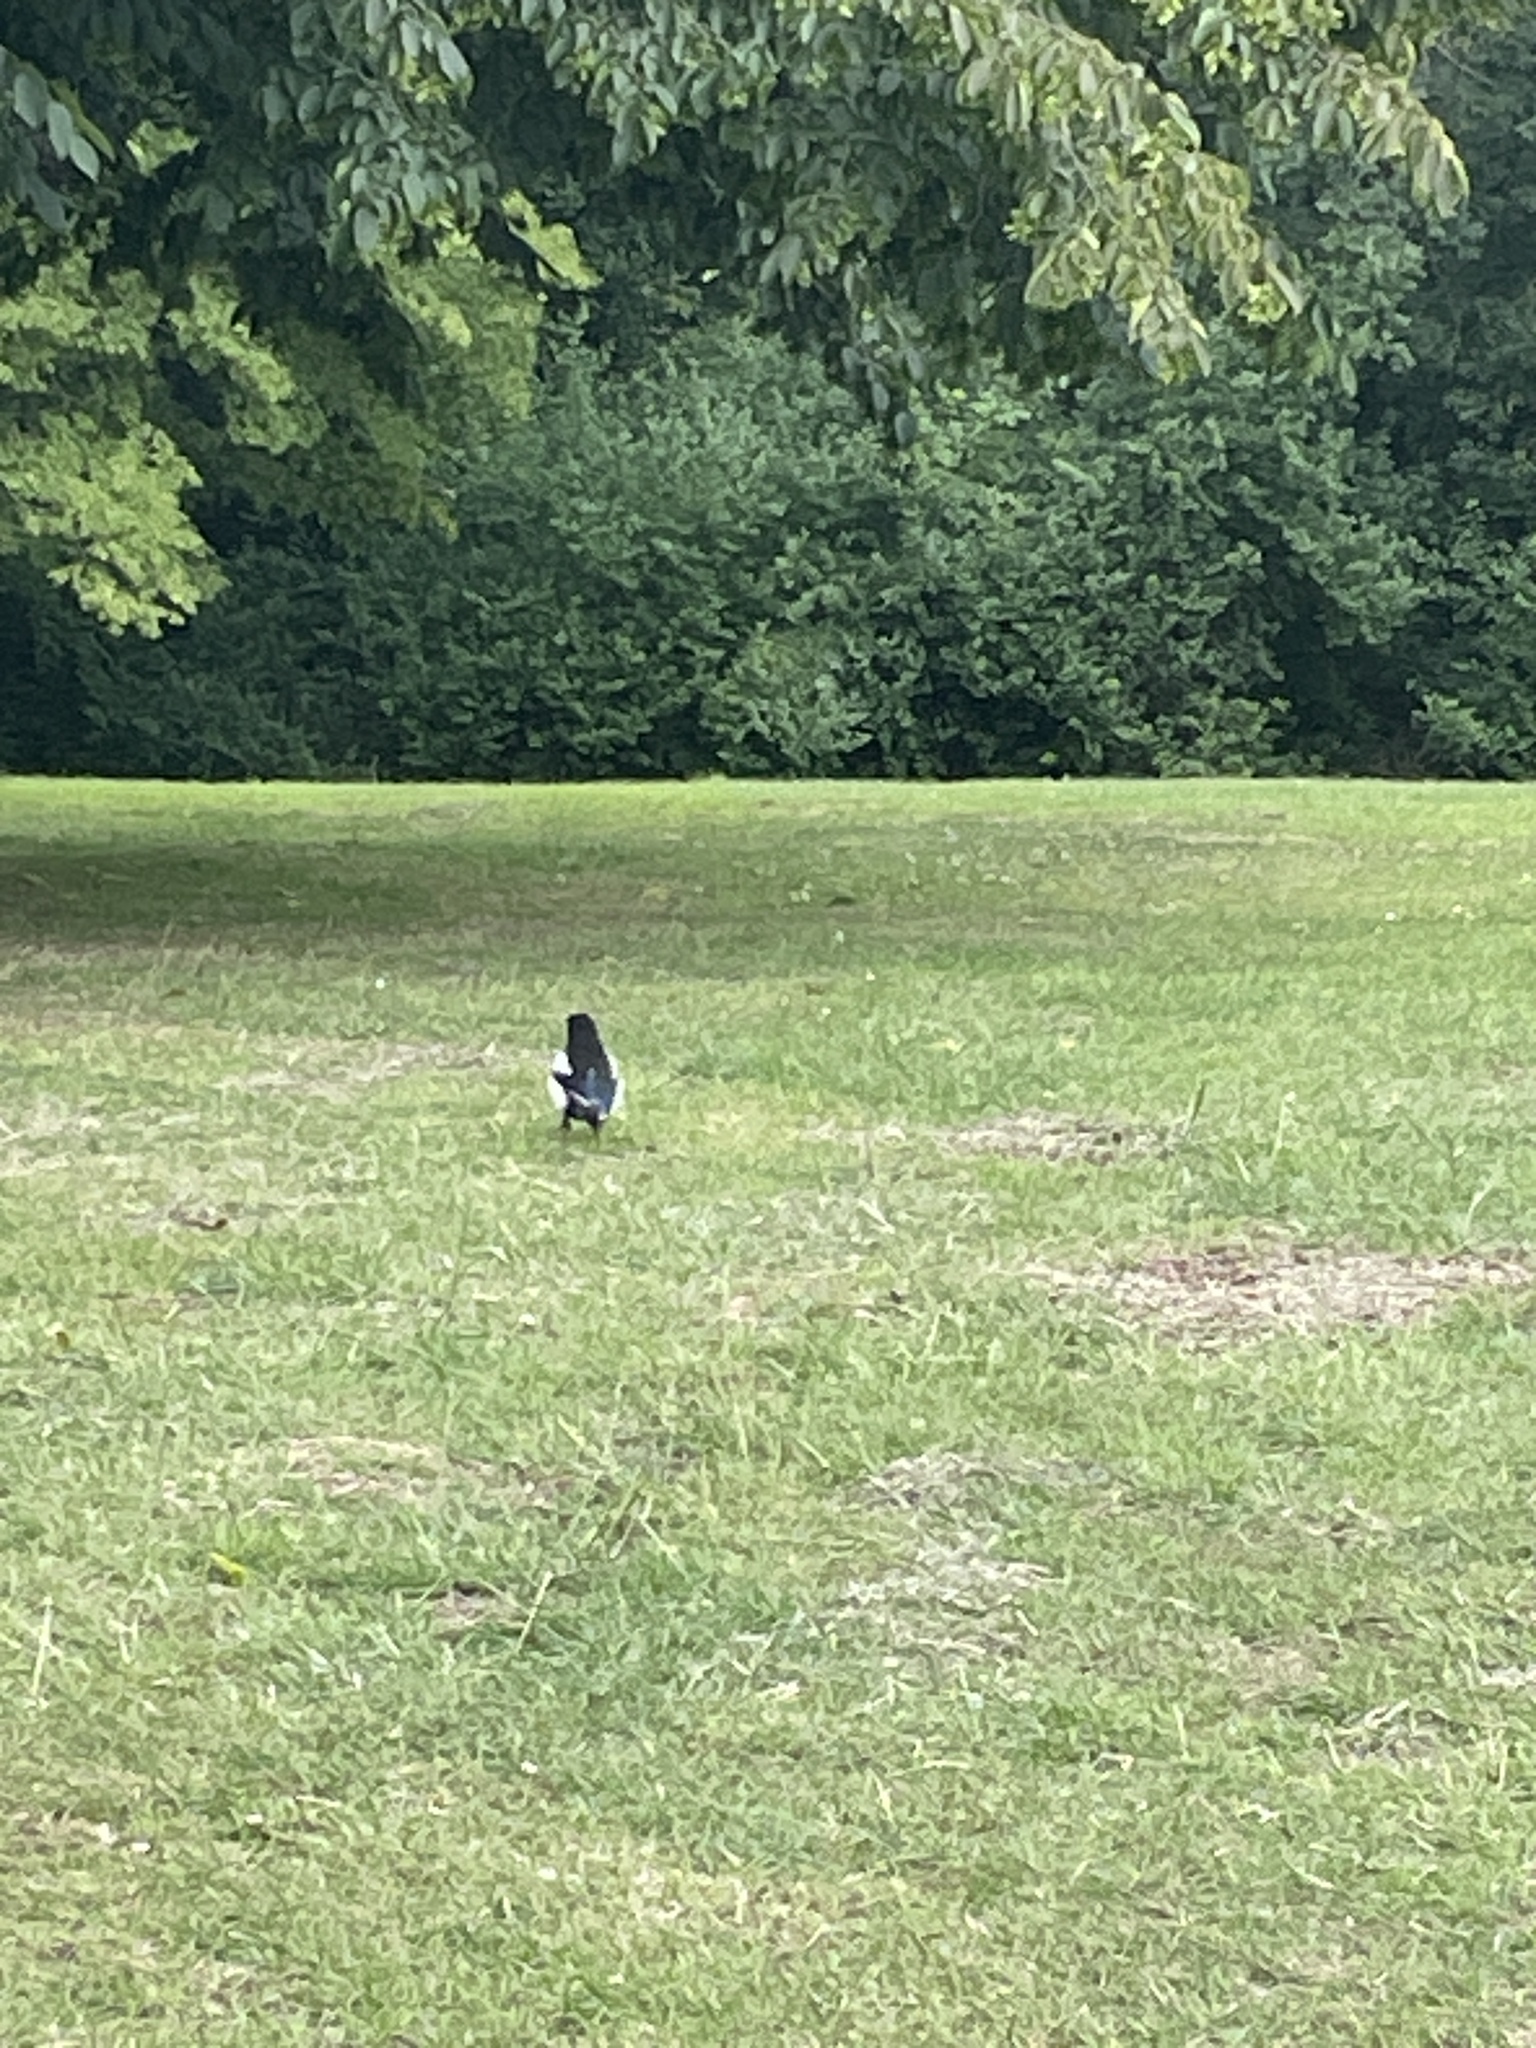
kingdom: Animalia
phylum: Chordata
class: Aves
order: Passeriformes
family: Corvidae
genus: Pica
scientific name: Pica pica
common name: Eurasian magpie
